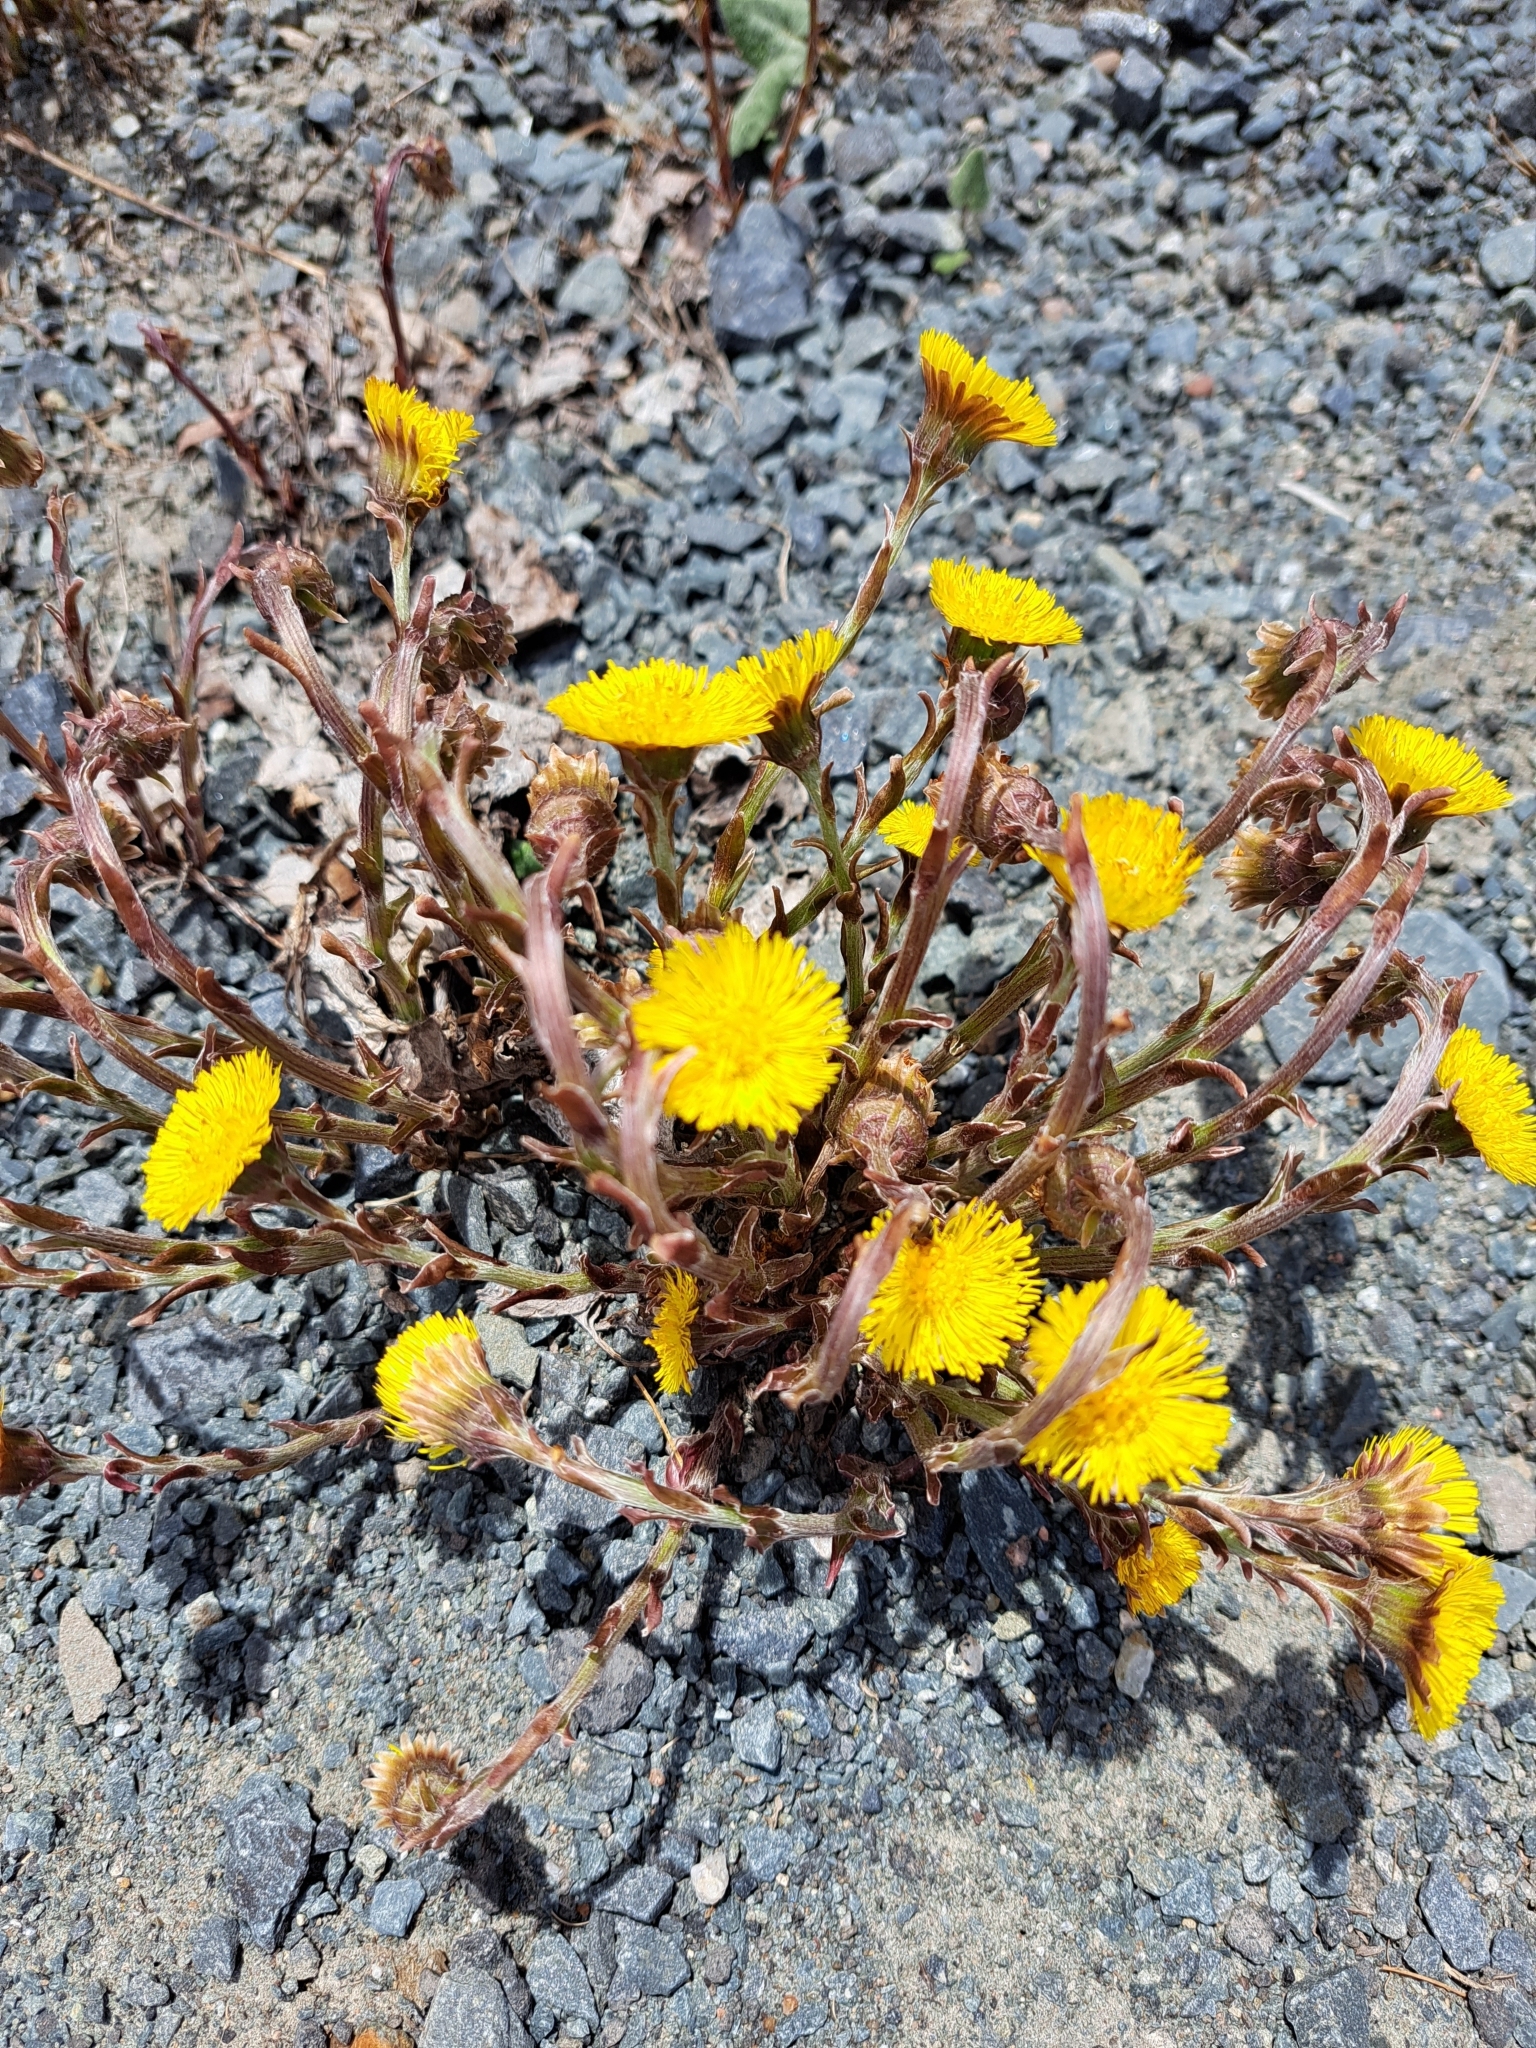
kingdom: Plantae
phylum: Tracheophyta
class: Magnoliopsida
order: Asterales
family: Asteraceae
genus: Tussilago
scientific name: Tussilago farfara
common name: Coltsfoot
